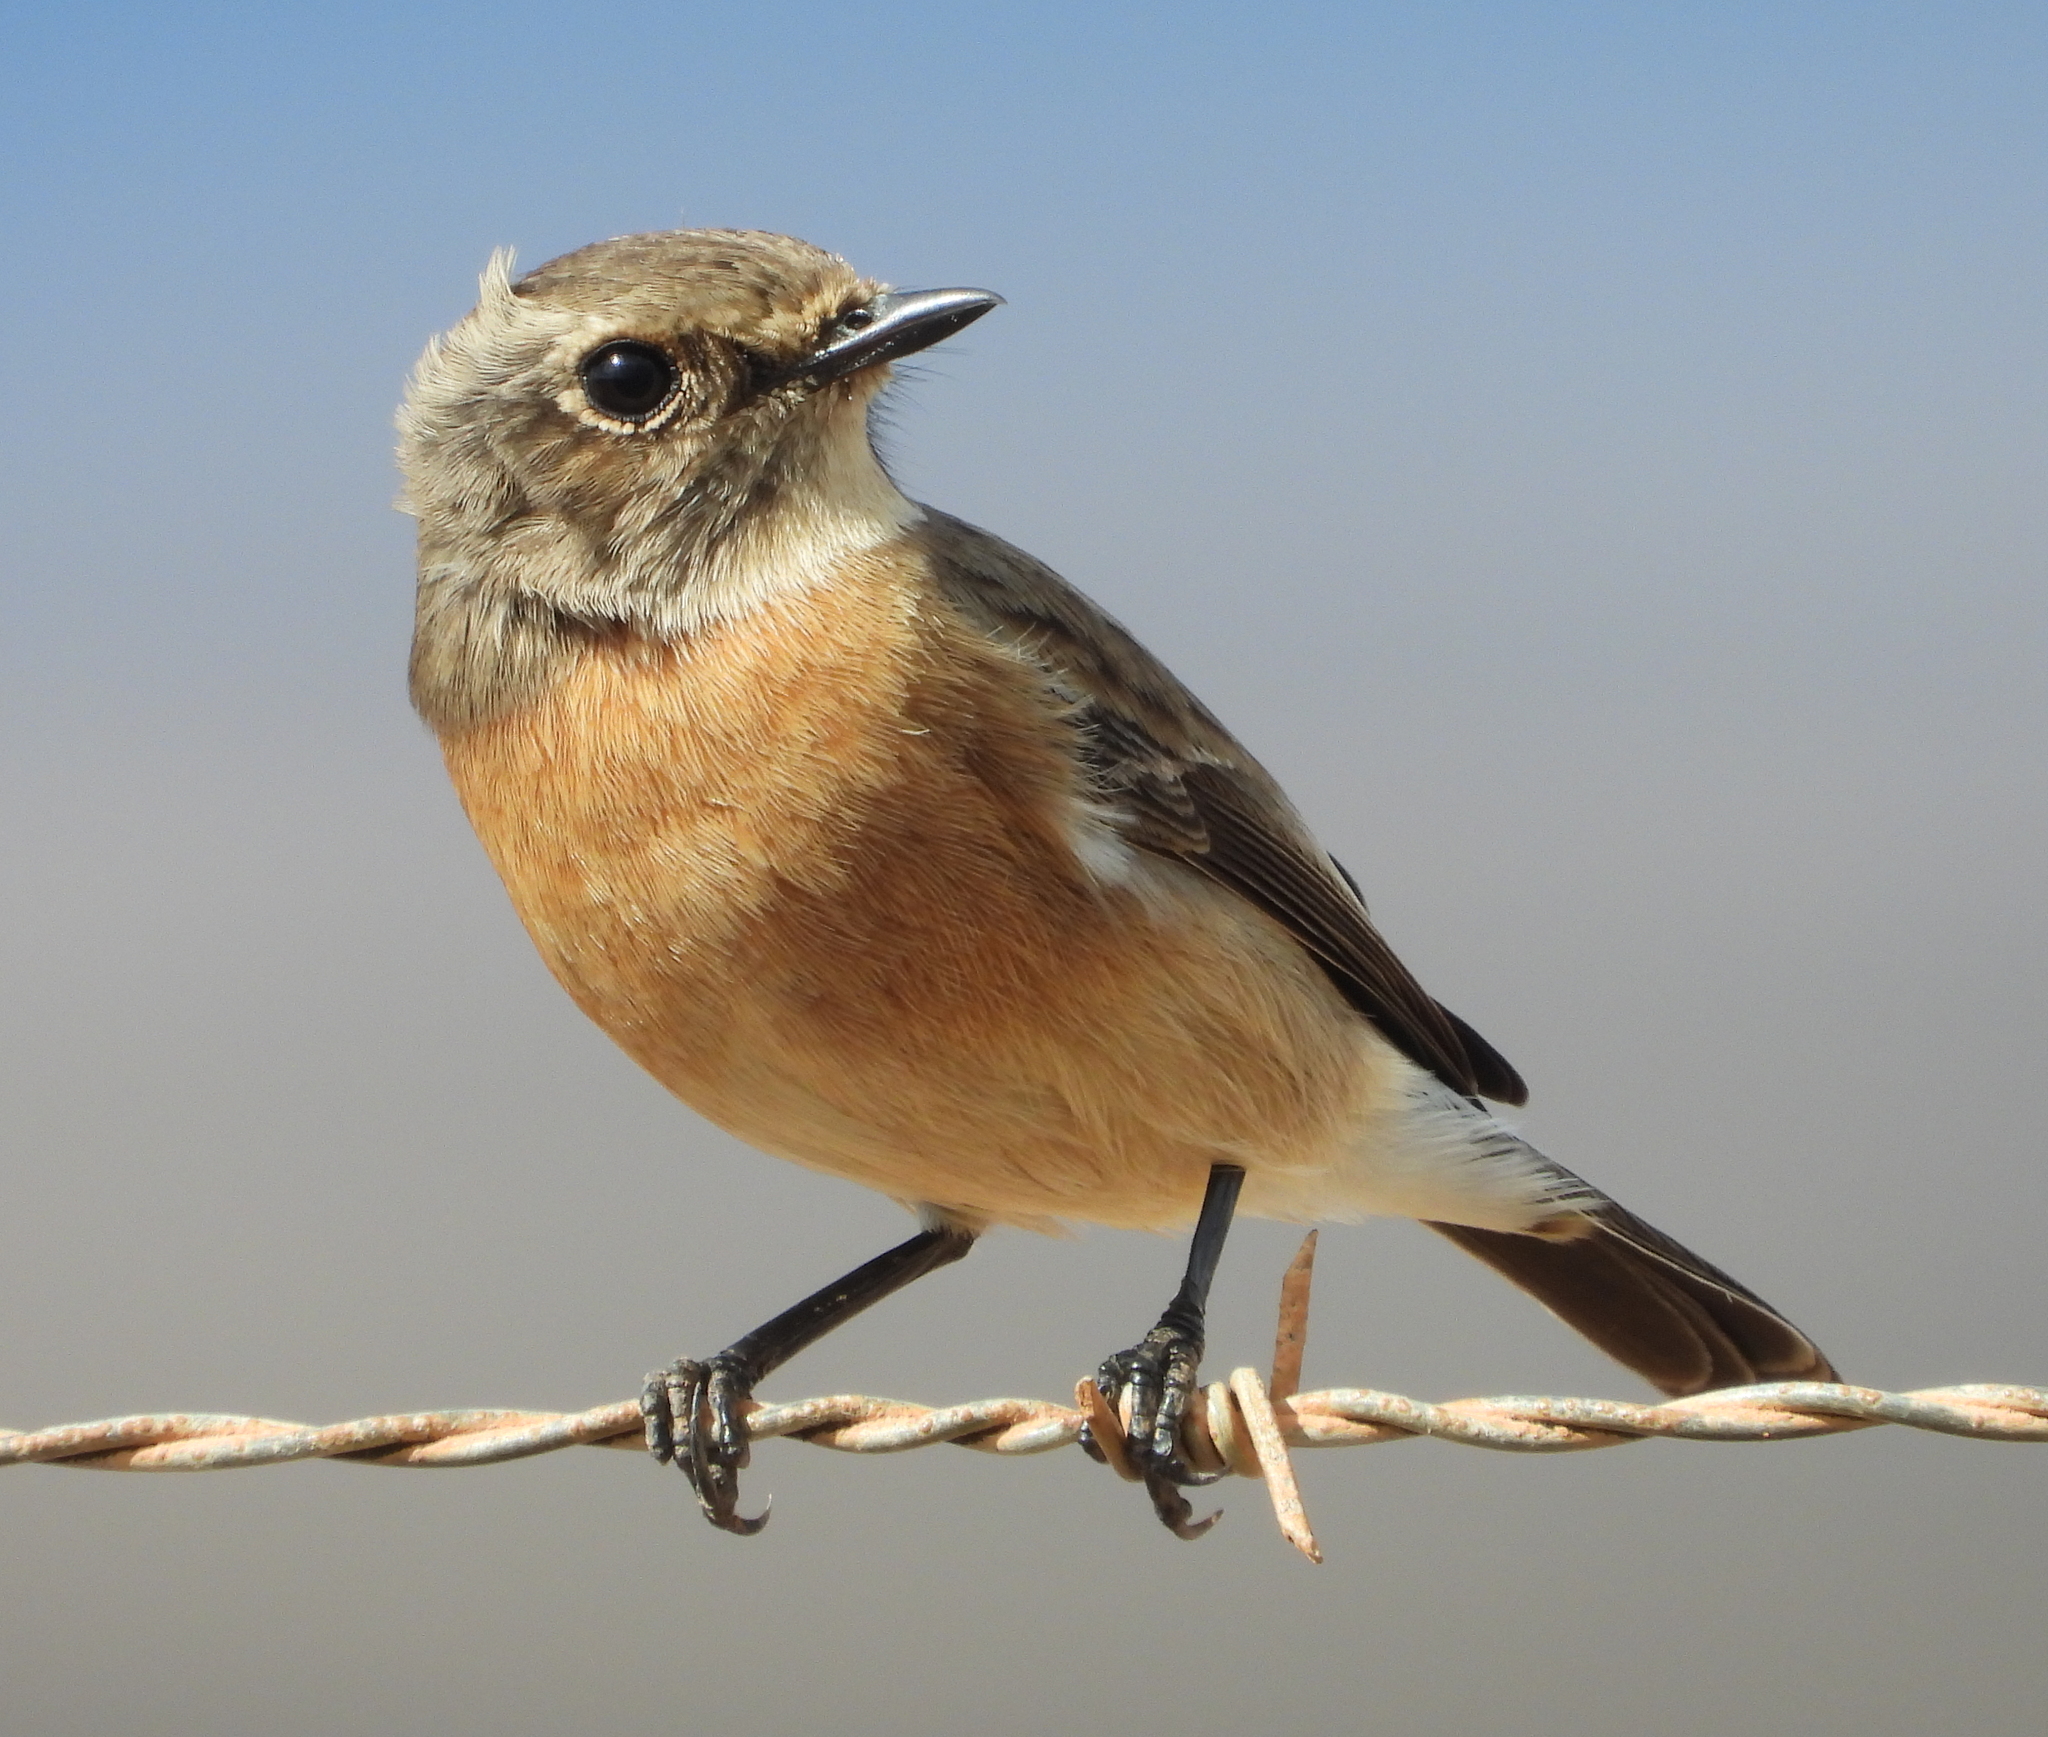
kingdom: Animalia
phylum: Chordata
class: Aves
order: Passeriformes
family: Muscicapidae
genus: Saxicola
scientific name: Saxicola torquatus
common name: African stonechat
